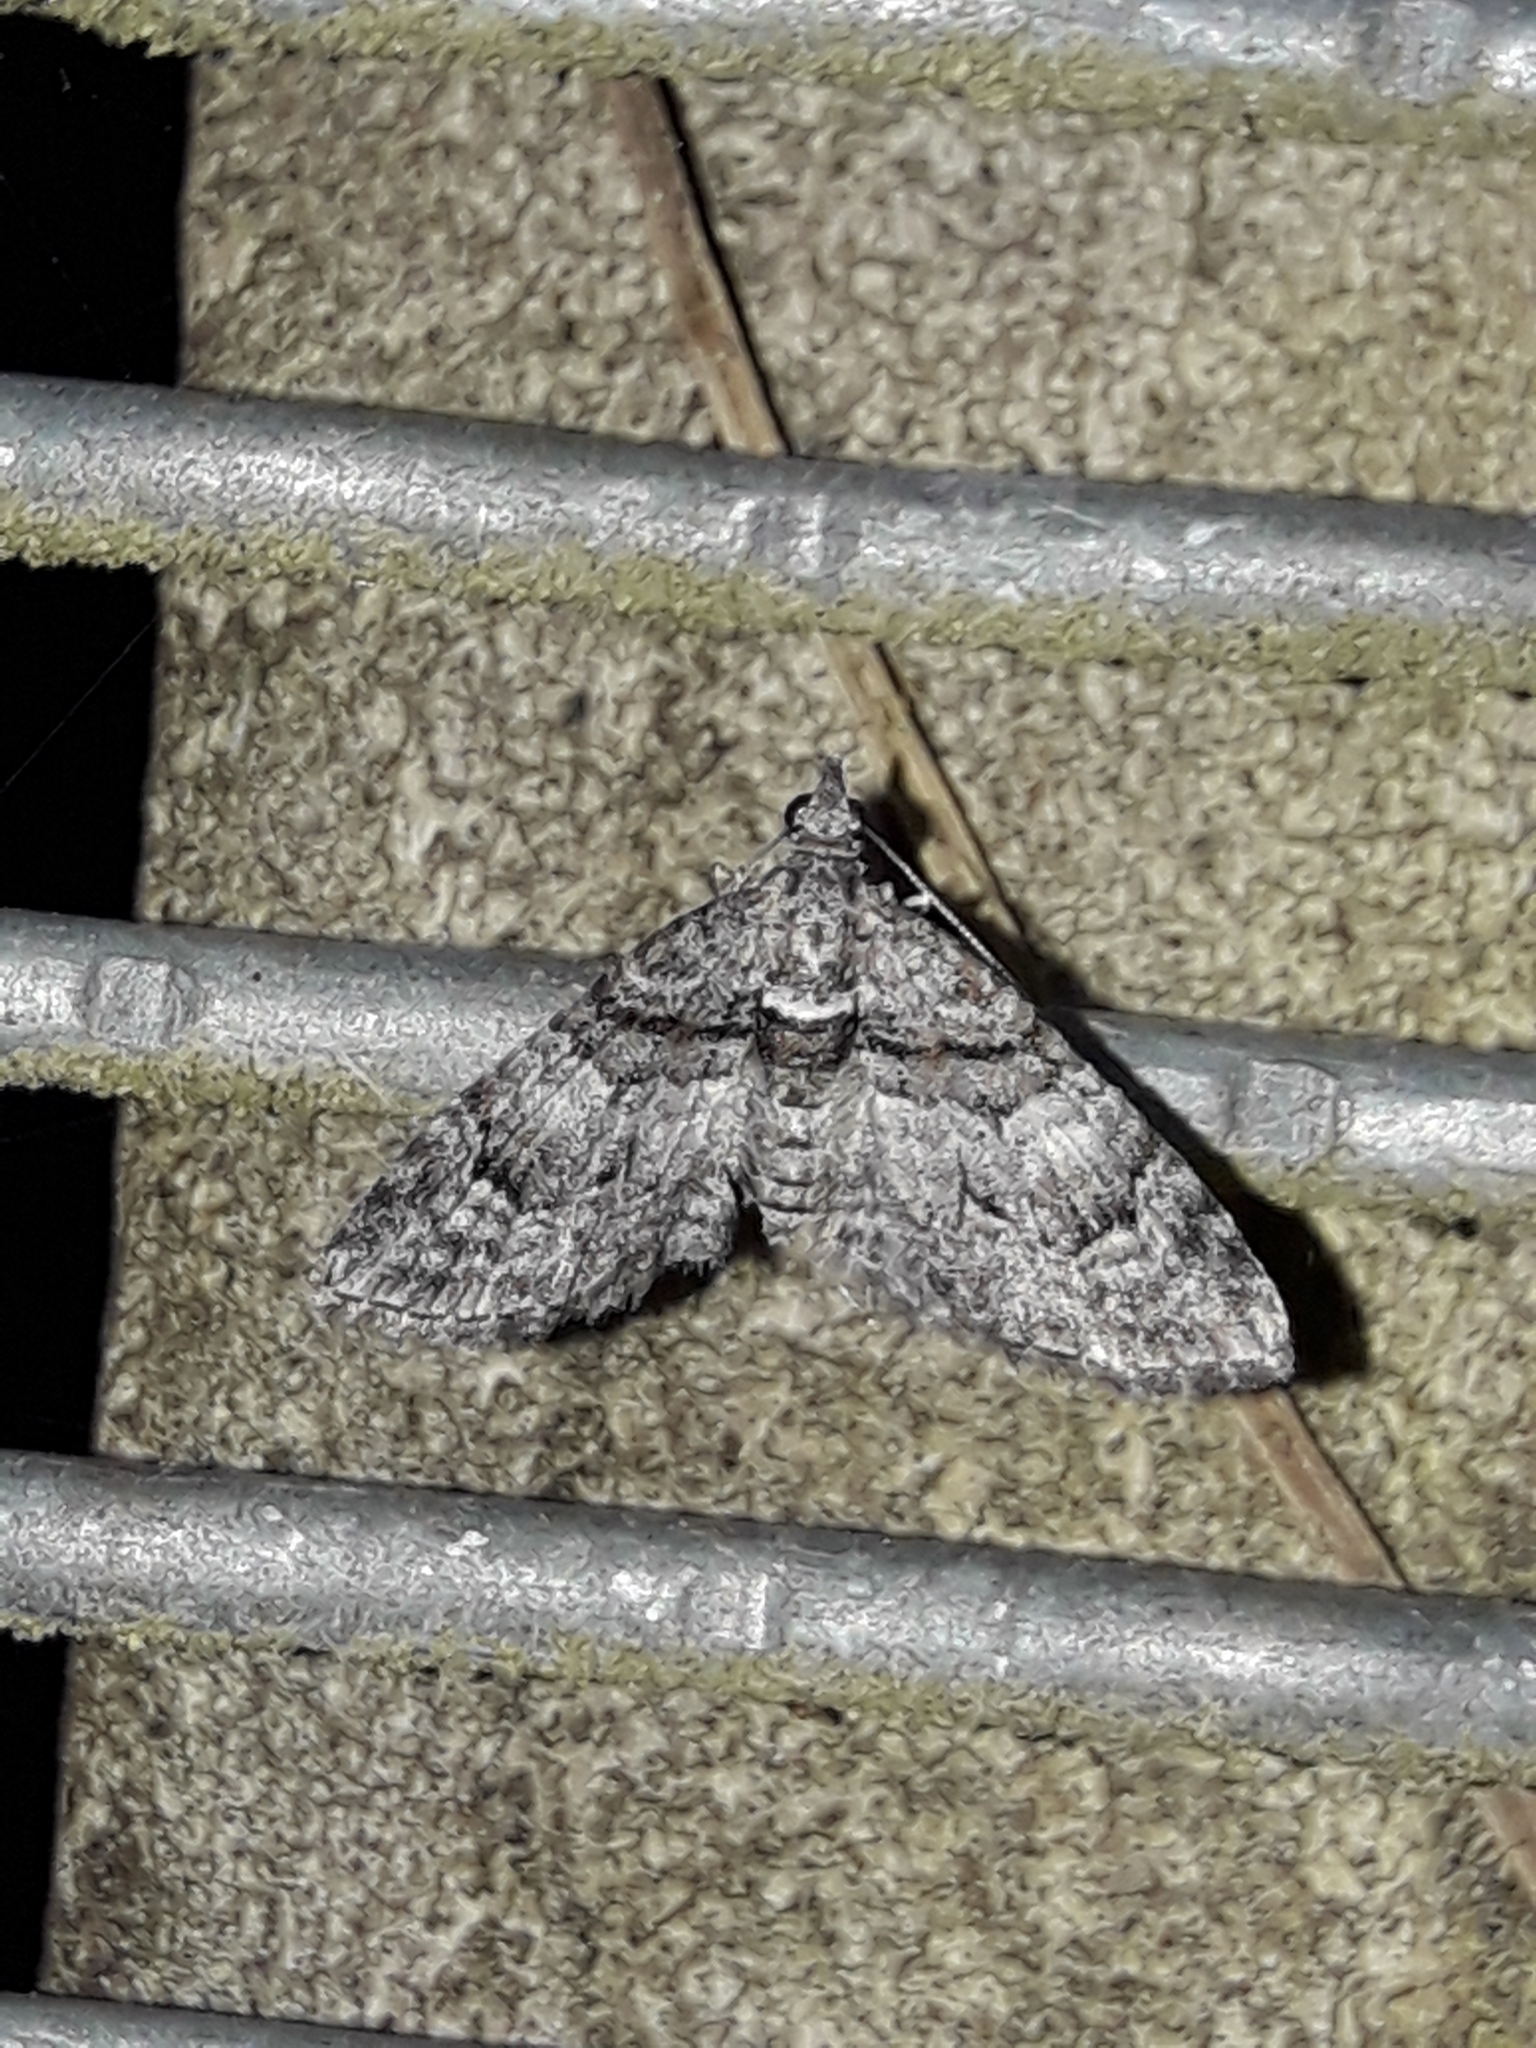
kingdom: Animalia
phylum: Arthropoda
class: Insecta
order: Lepidoptera
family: Geometridae
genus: Phrissogonus
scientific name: Phrissogonus laticostata
